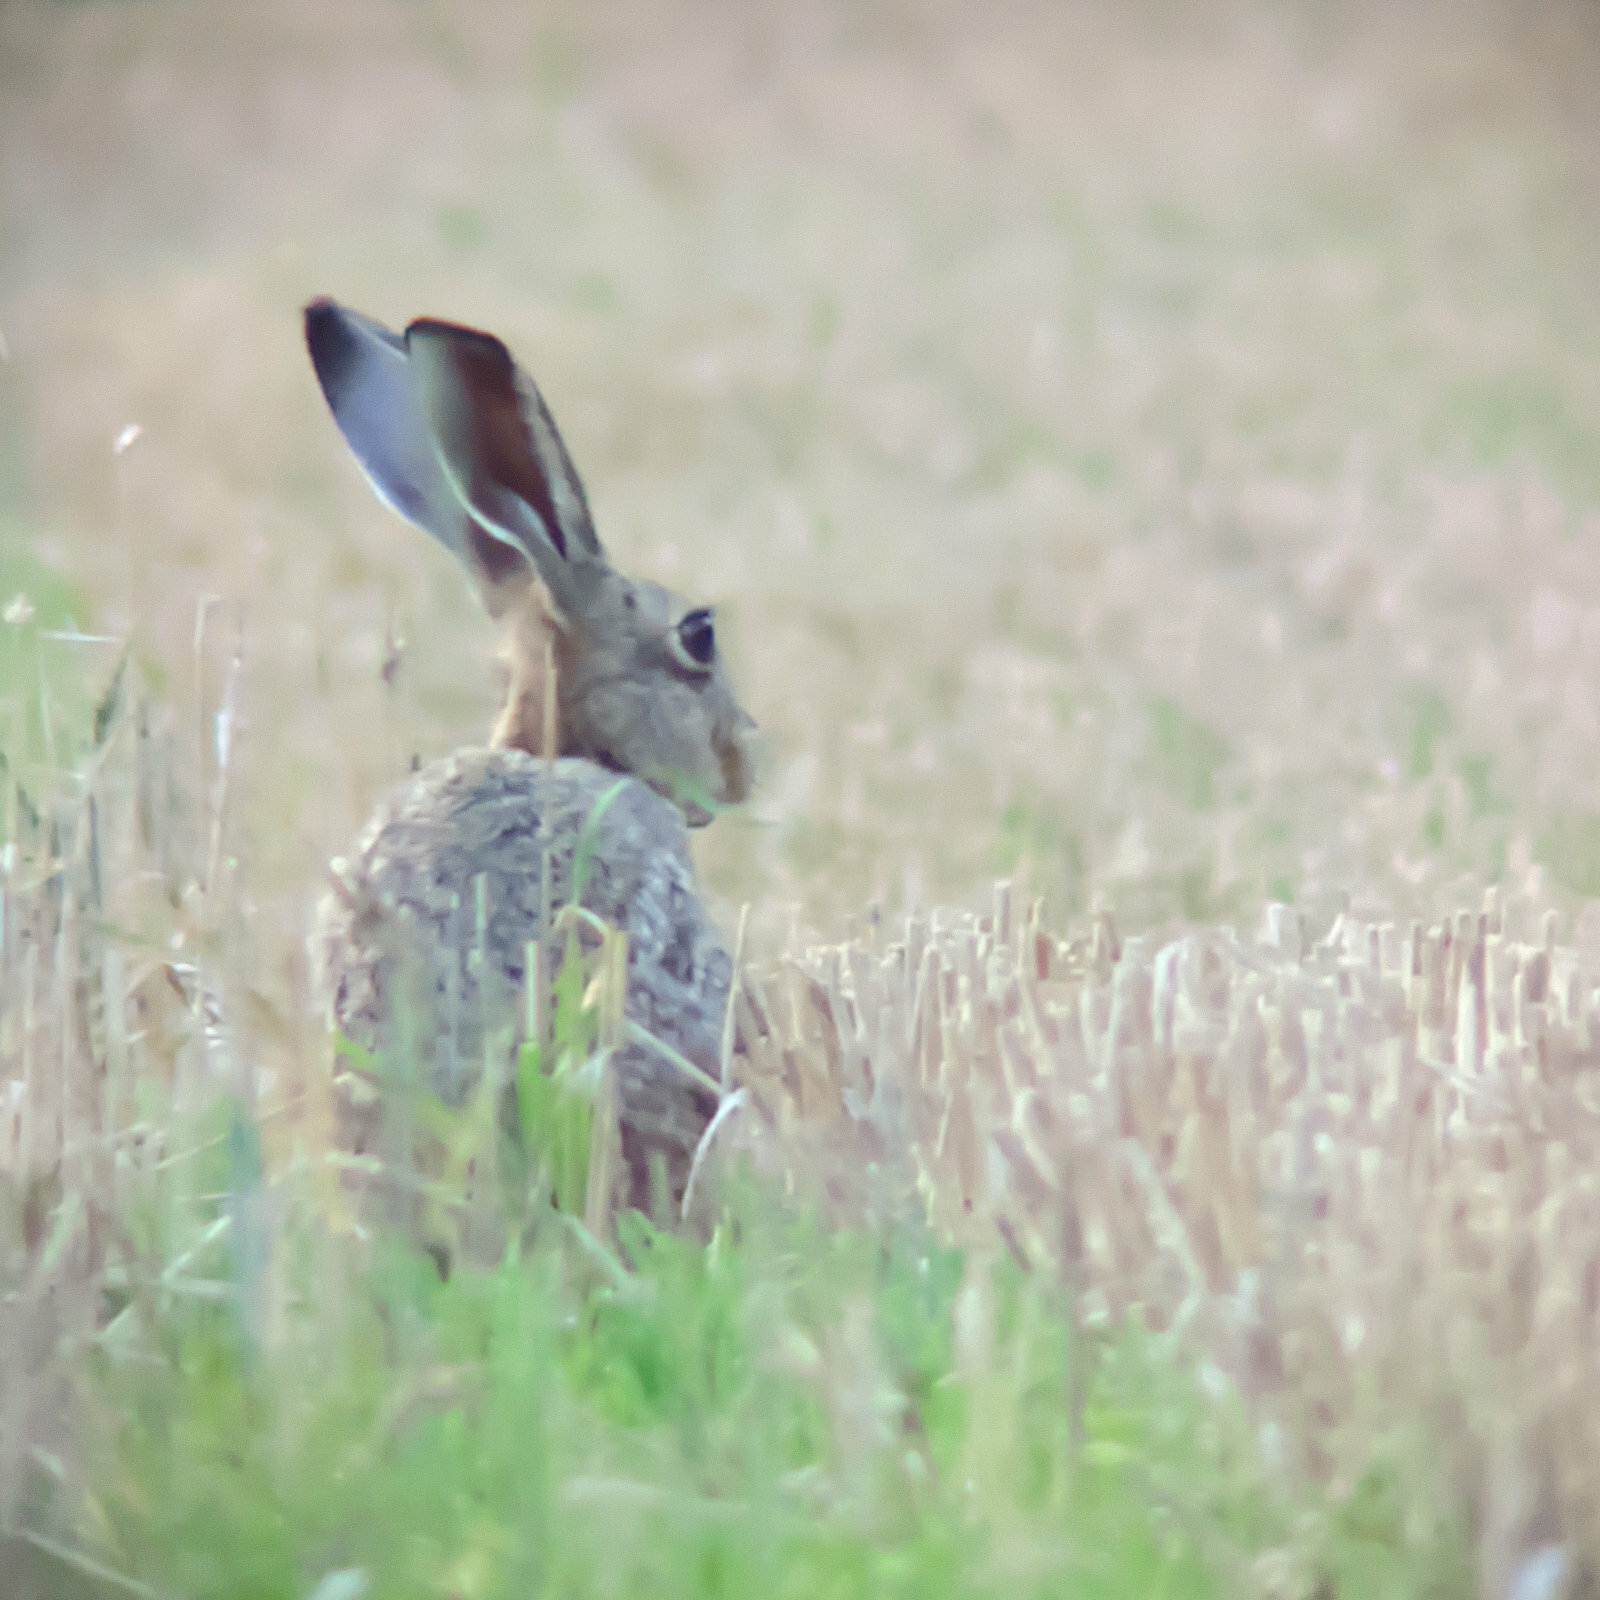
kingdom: Animalia
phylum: Chordata
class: Mammalia
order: Lagomorpha
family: Leporidae
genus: Lepus
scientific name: Lepus europaeus
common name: European hare
